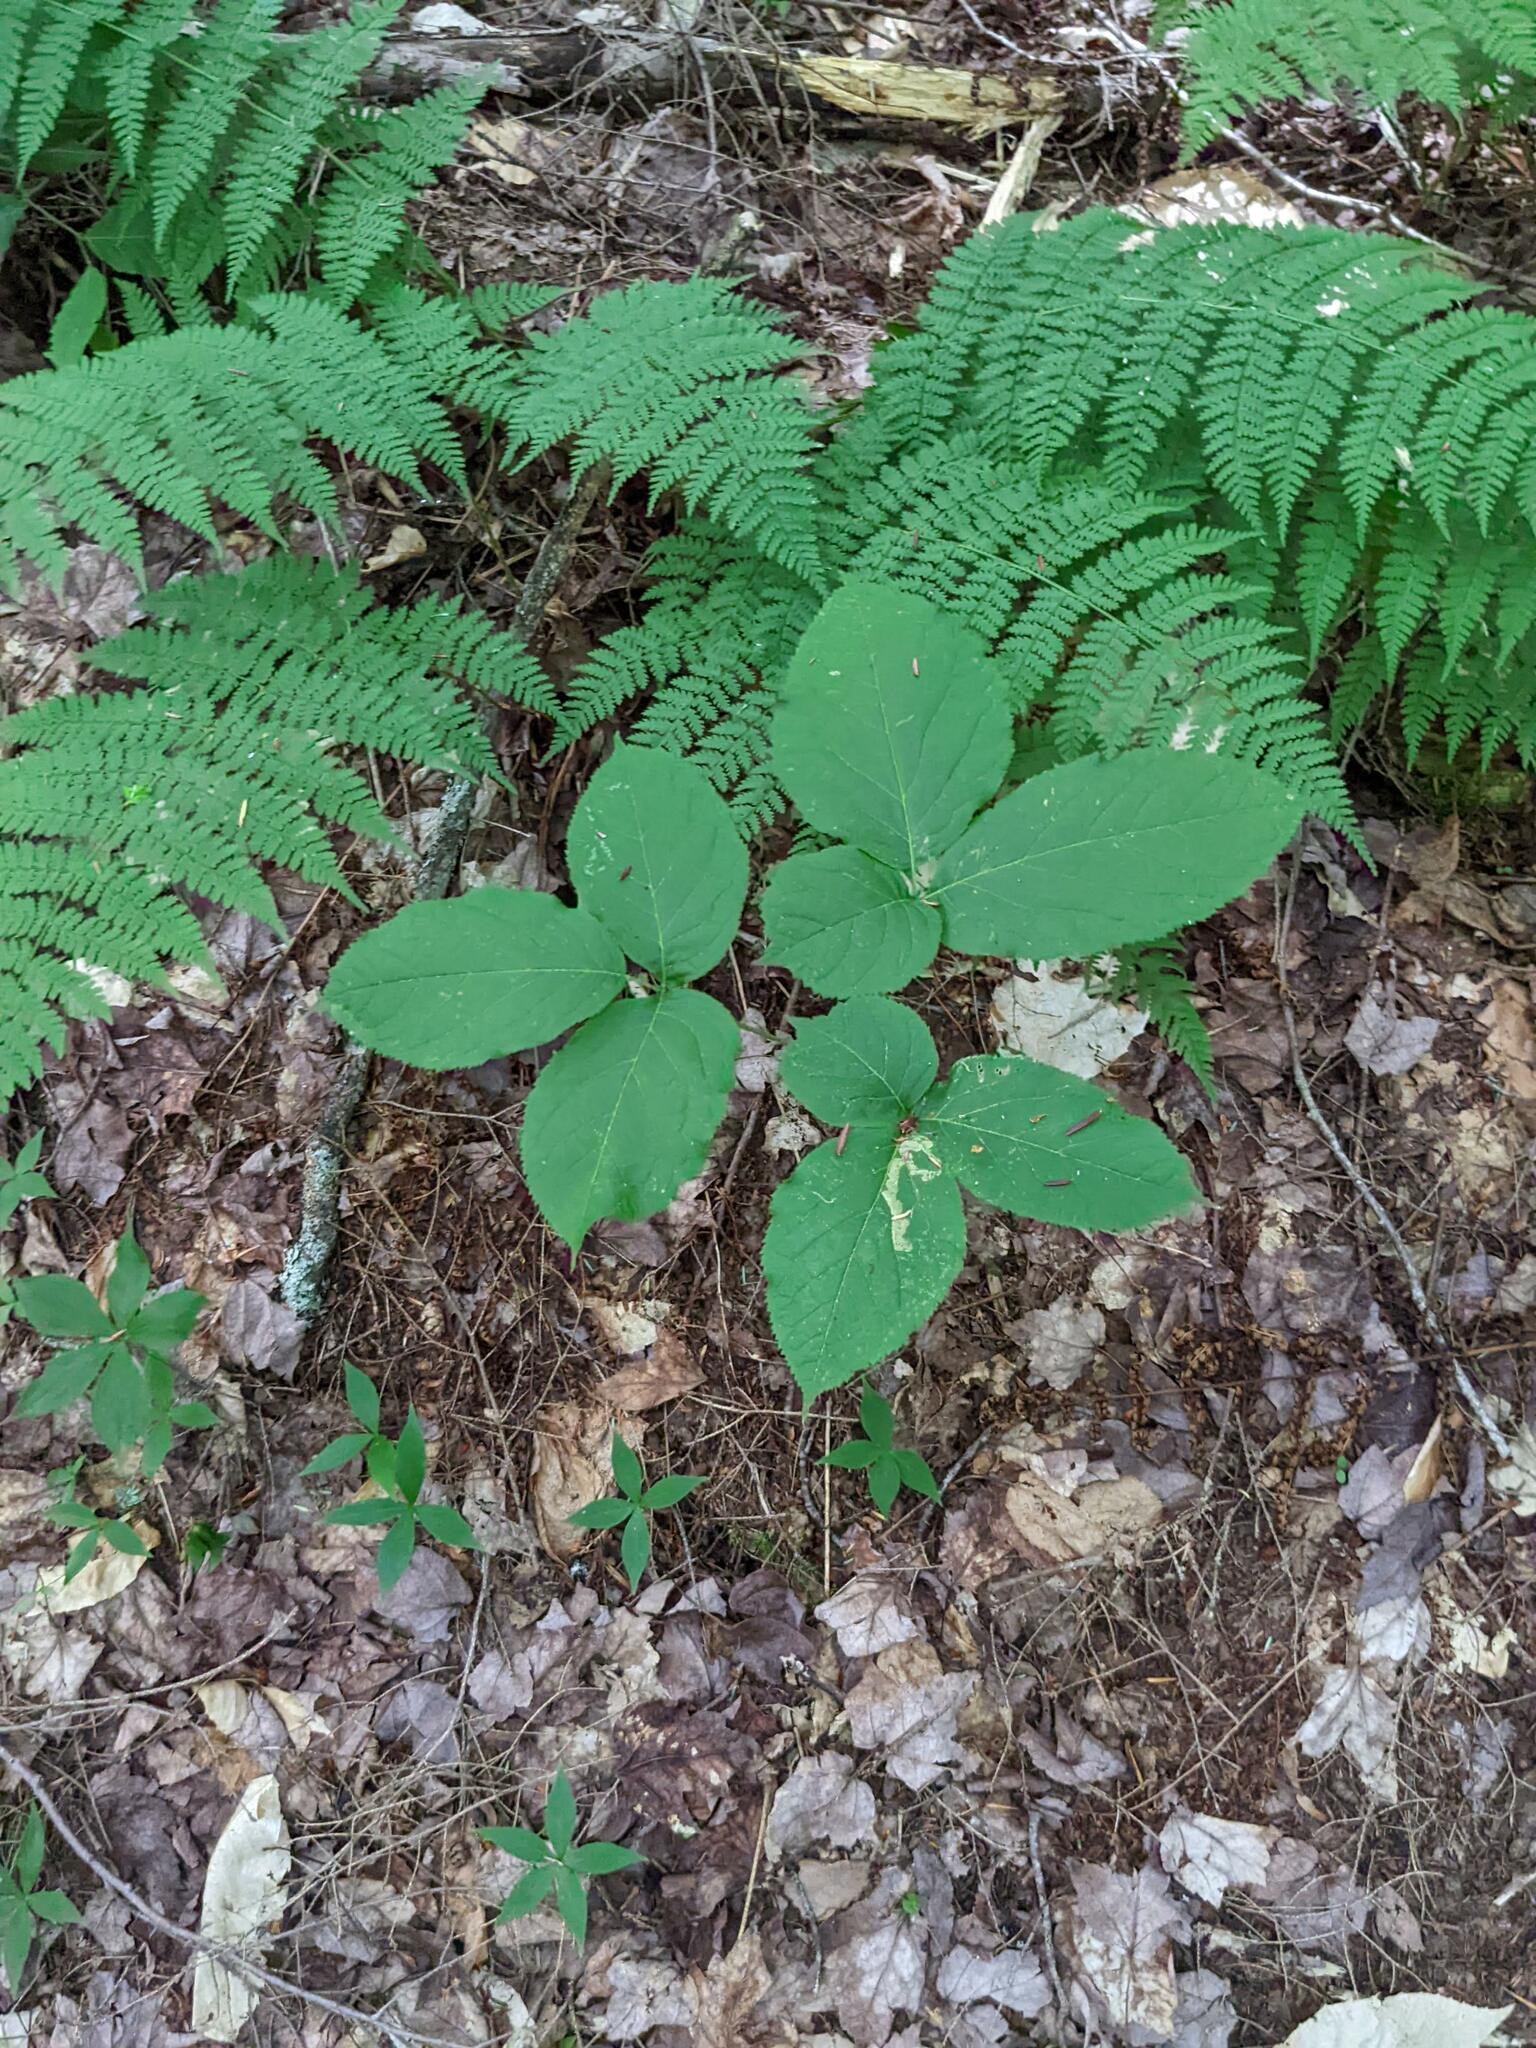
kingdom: Plantae
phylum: Tracheophyta
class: Magnoliopsida
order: Apiales
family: Araliaceae
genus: Aralia
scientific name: Aralia nudicaulis
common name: Wild sarsaparilla
